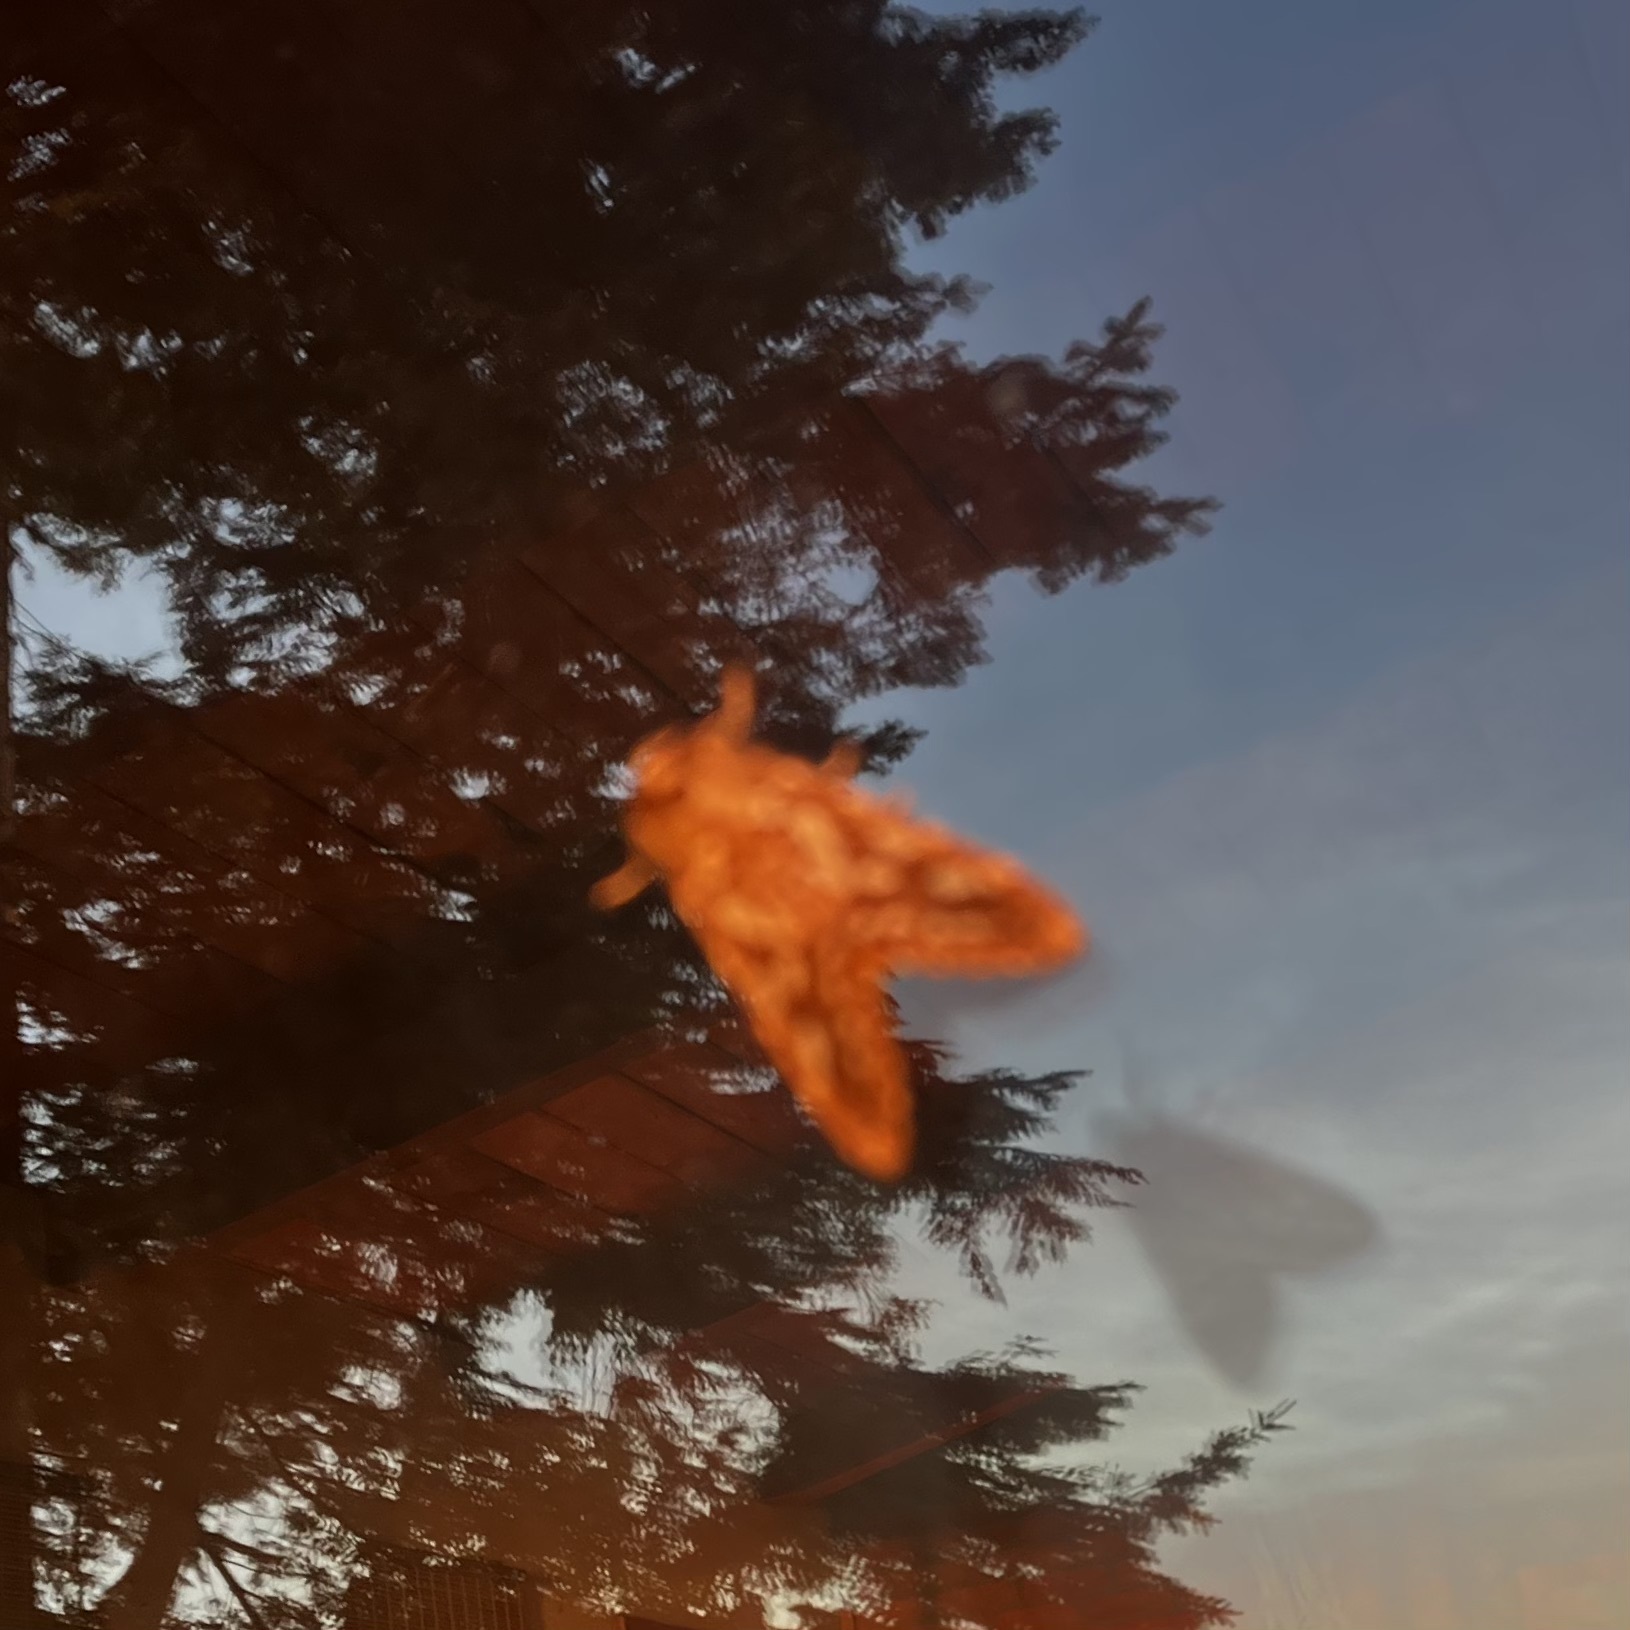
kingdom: Animalia
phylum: Arthropoda
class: Insecta
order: Lepidoptera
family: Erebidae
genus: Lophocampa
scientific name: Lophocampa argentata
